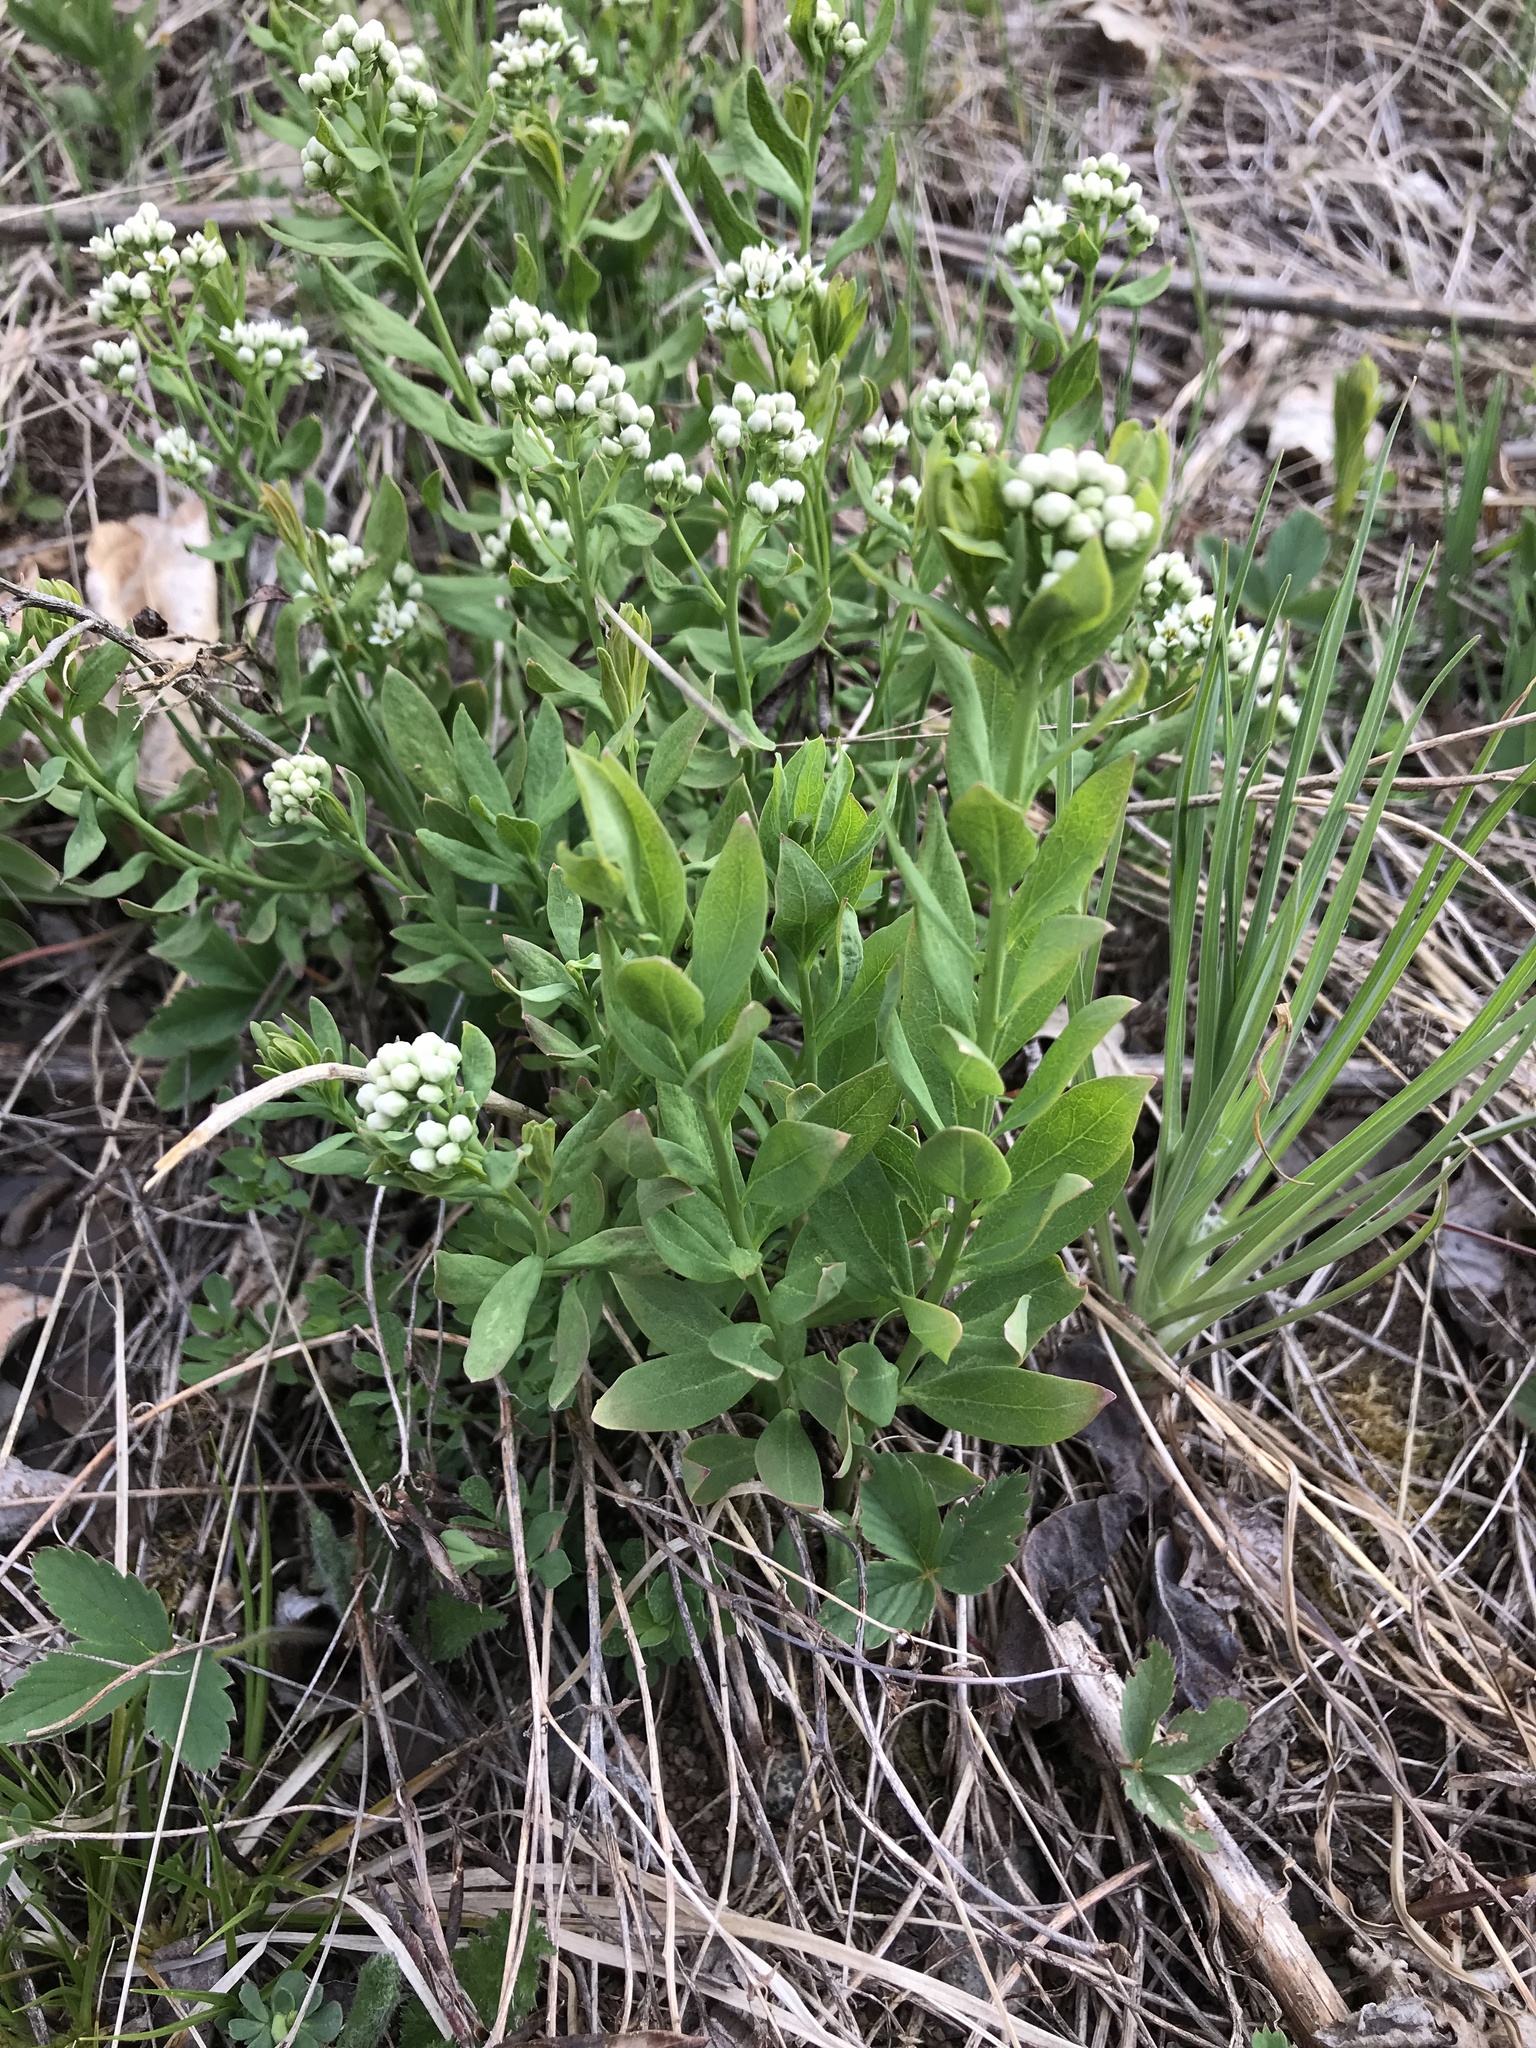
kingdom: Plantae
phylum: Tracheophyta
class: Magnoliopsida
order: Santalales
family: Comandraceae
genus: Comandra
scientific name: Comandra umbellata
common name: Bastard toadflax
